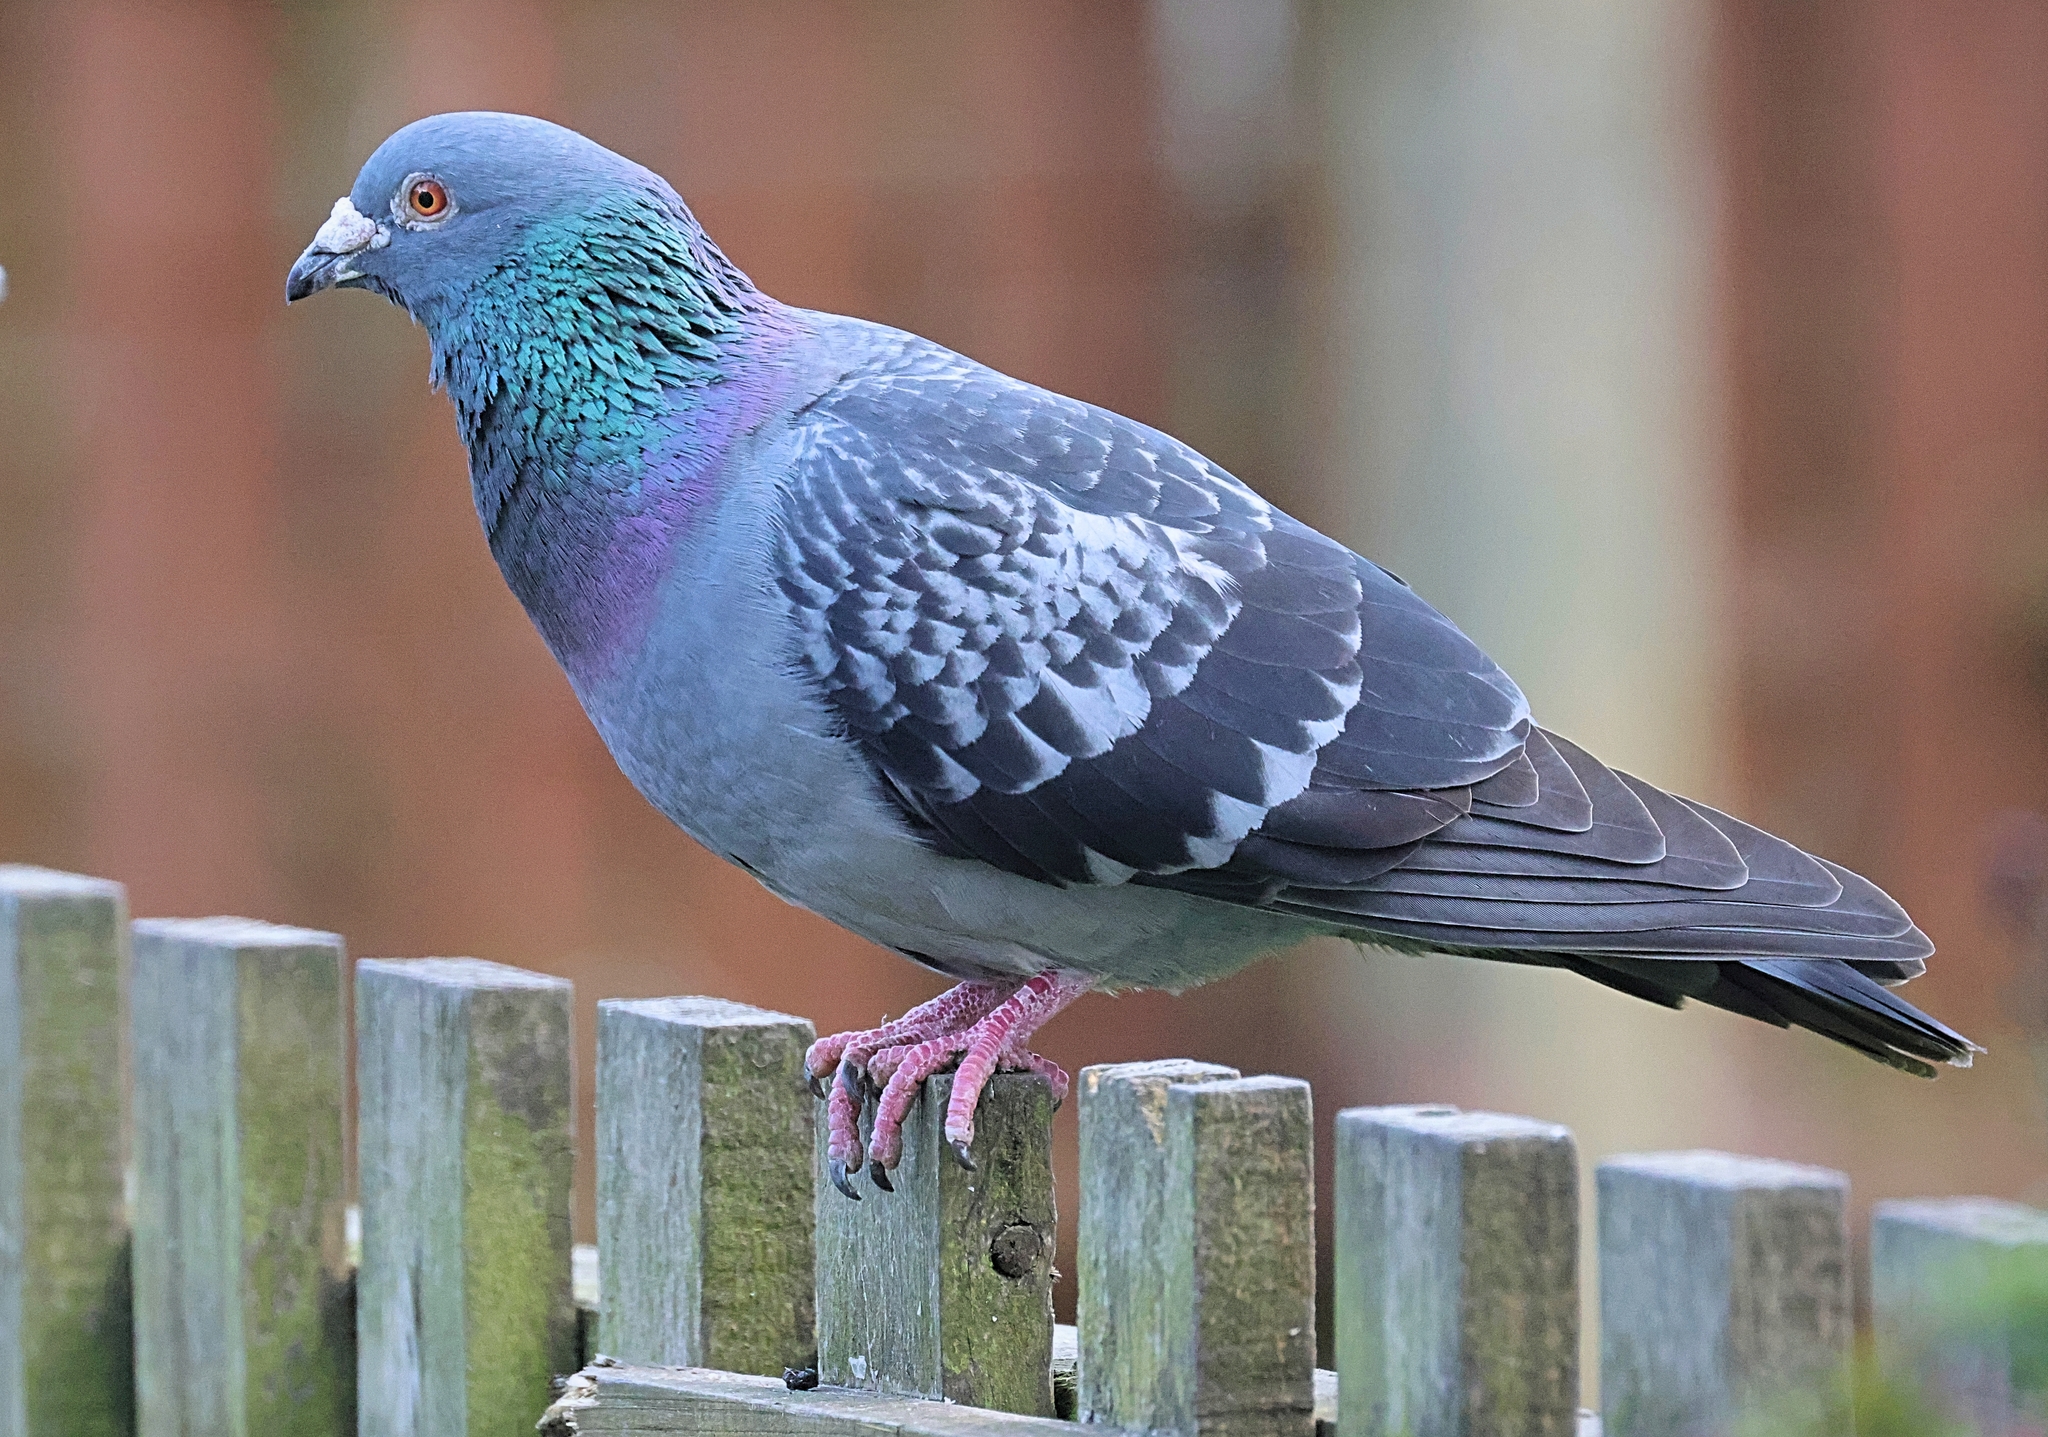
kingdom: Animalia
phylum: Chordata
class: Aves
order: Columbiformes
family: Columbidae
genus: Columba
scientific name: Columba livia
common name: Rock pigeon
